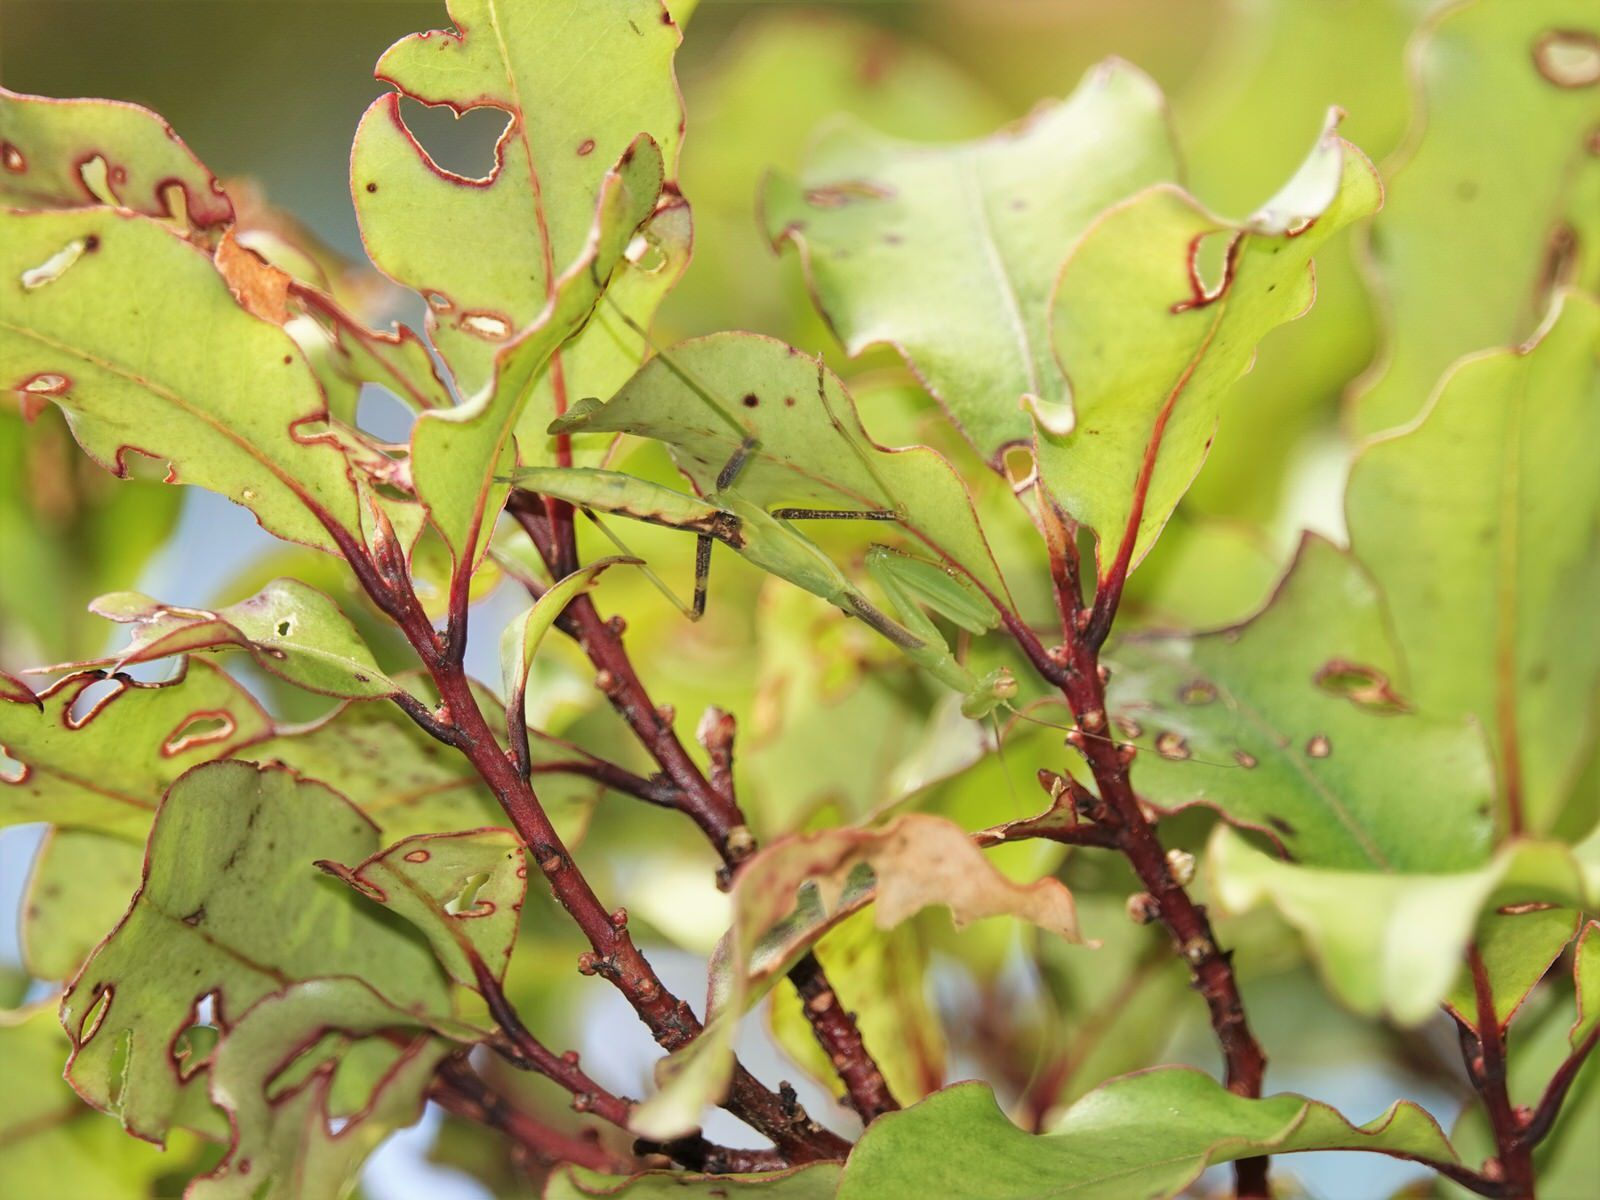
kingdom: Animalia
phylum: Arthropoda
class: Insecta
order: Mantodea
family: Miomantidae
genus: Miomantis
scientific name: Miomantis caffra
